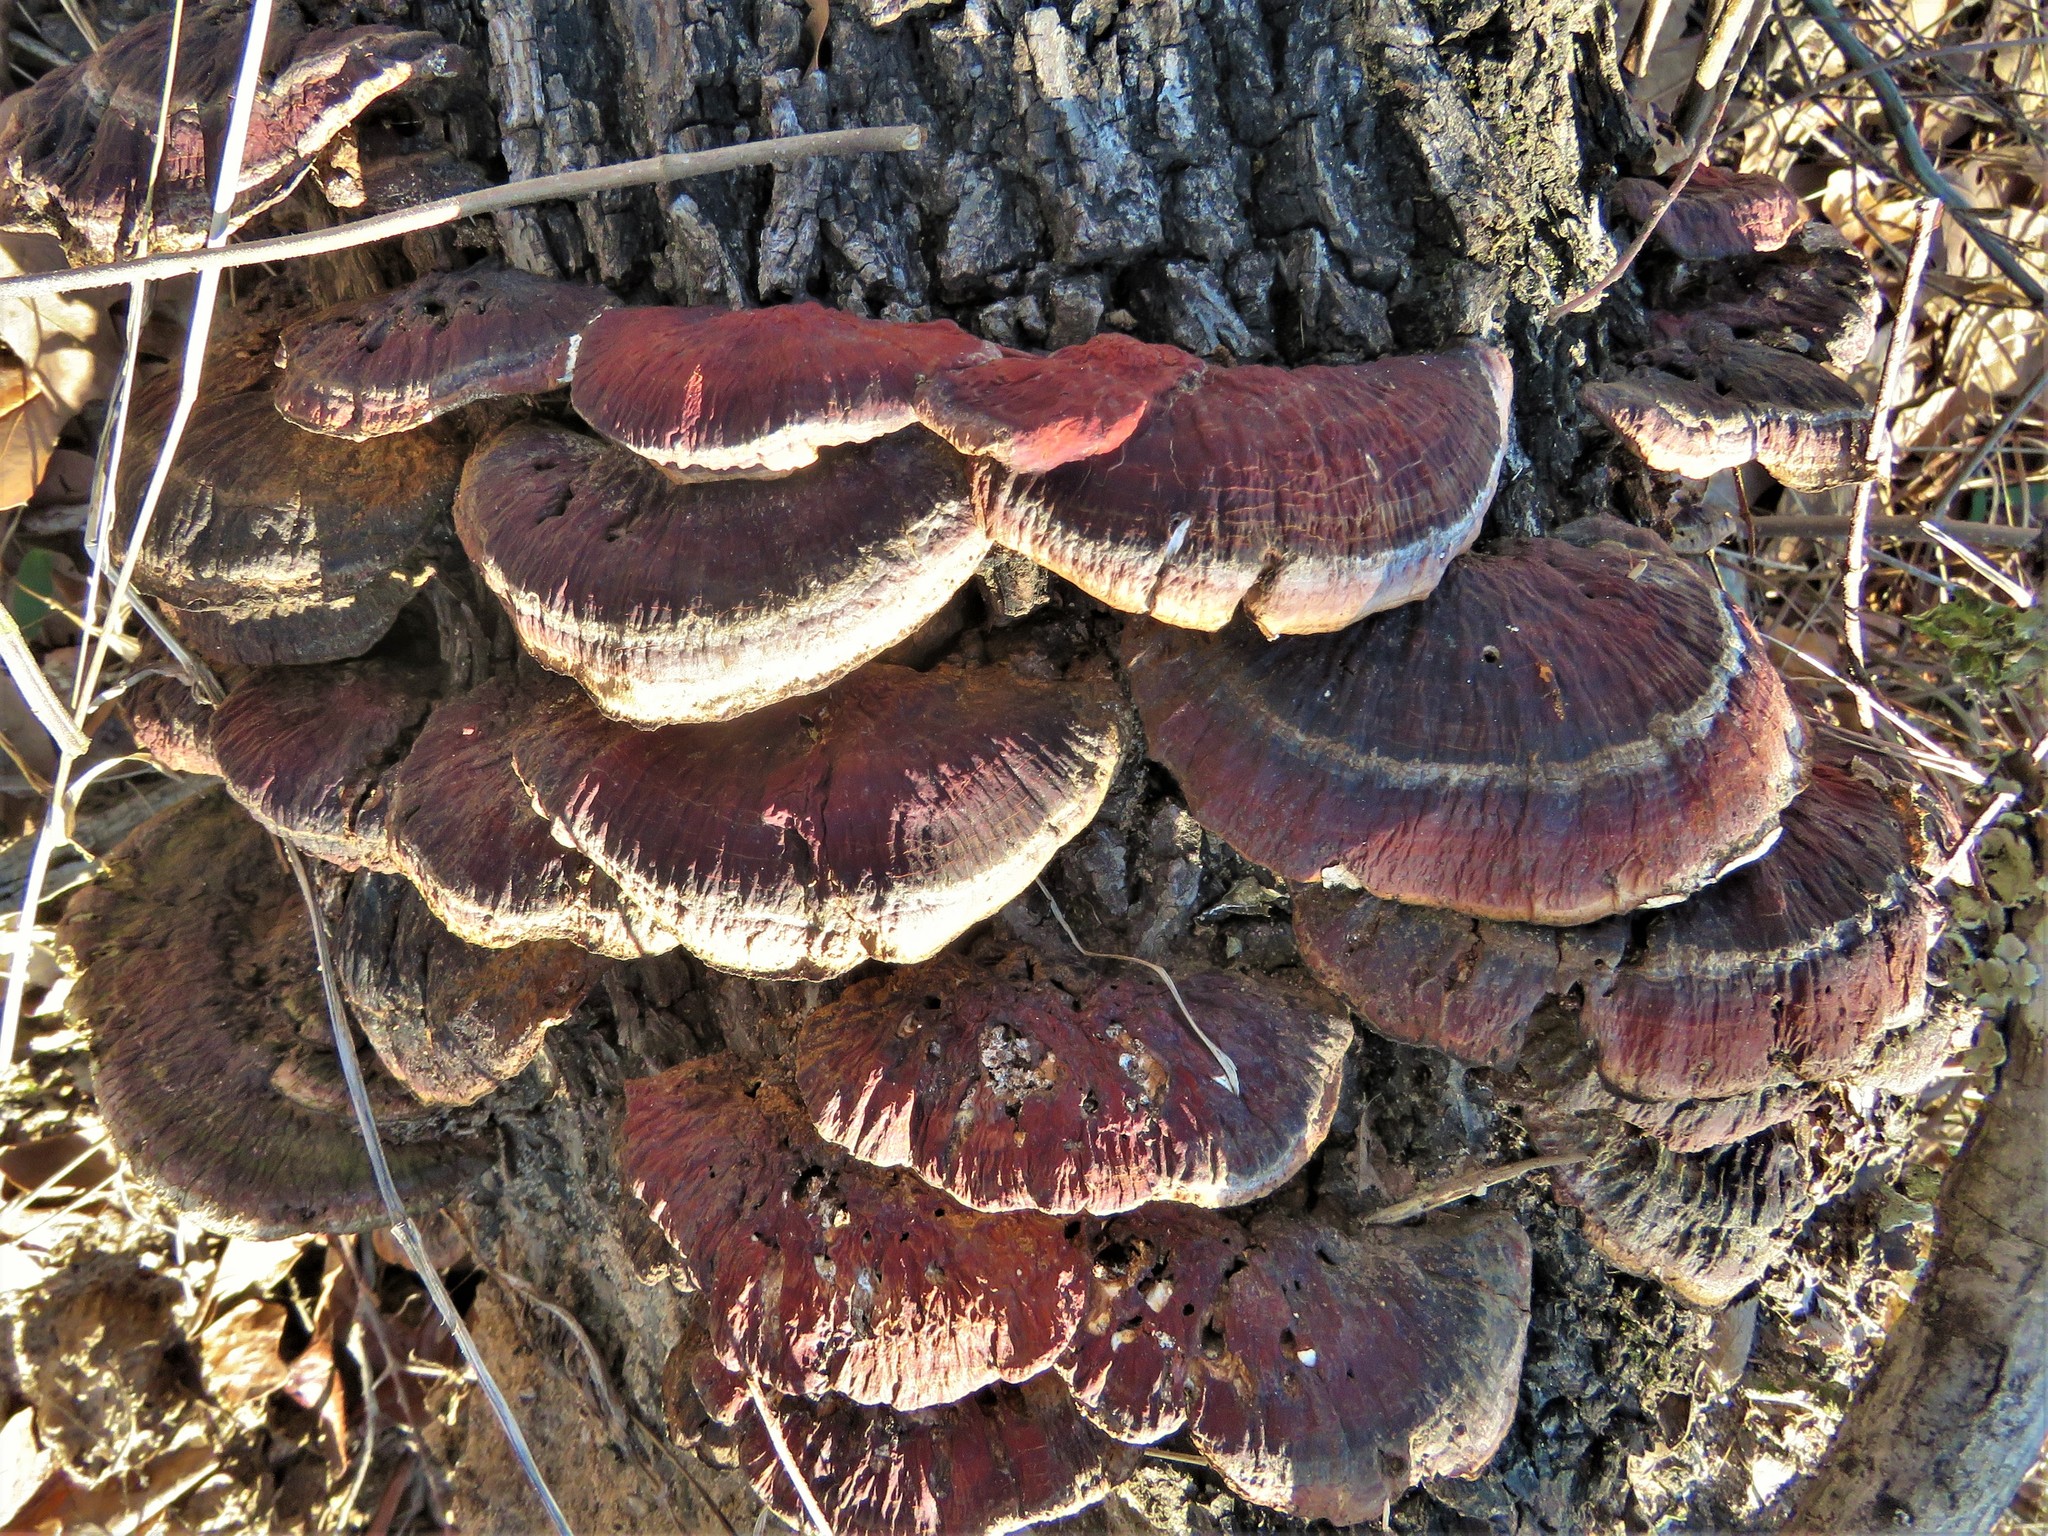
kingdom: Fungi
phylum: Basidiomycota
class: Agaricomycetes
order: Polyporales
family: Polyporaceae
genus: Ganoderma
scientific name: Ganoderma resinaceum
